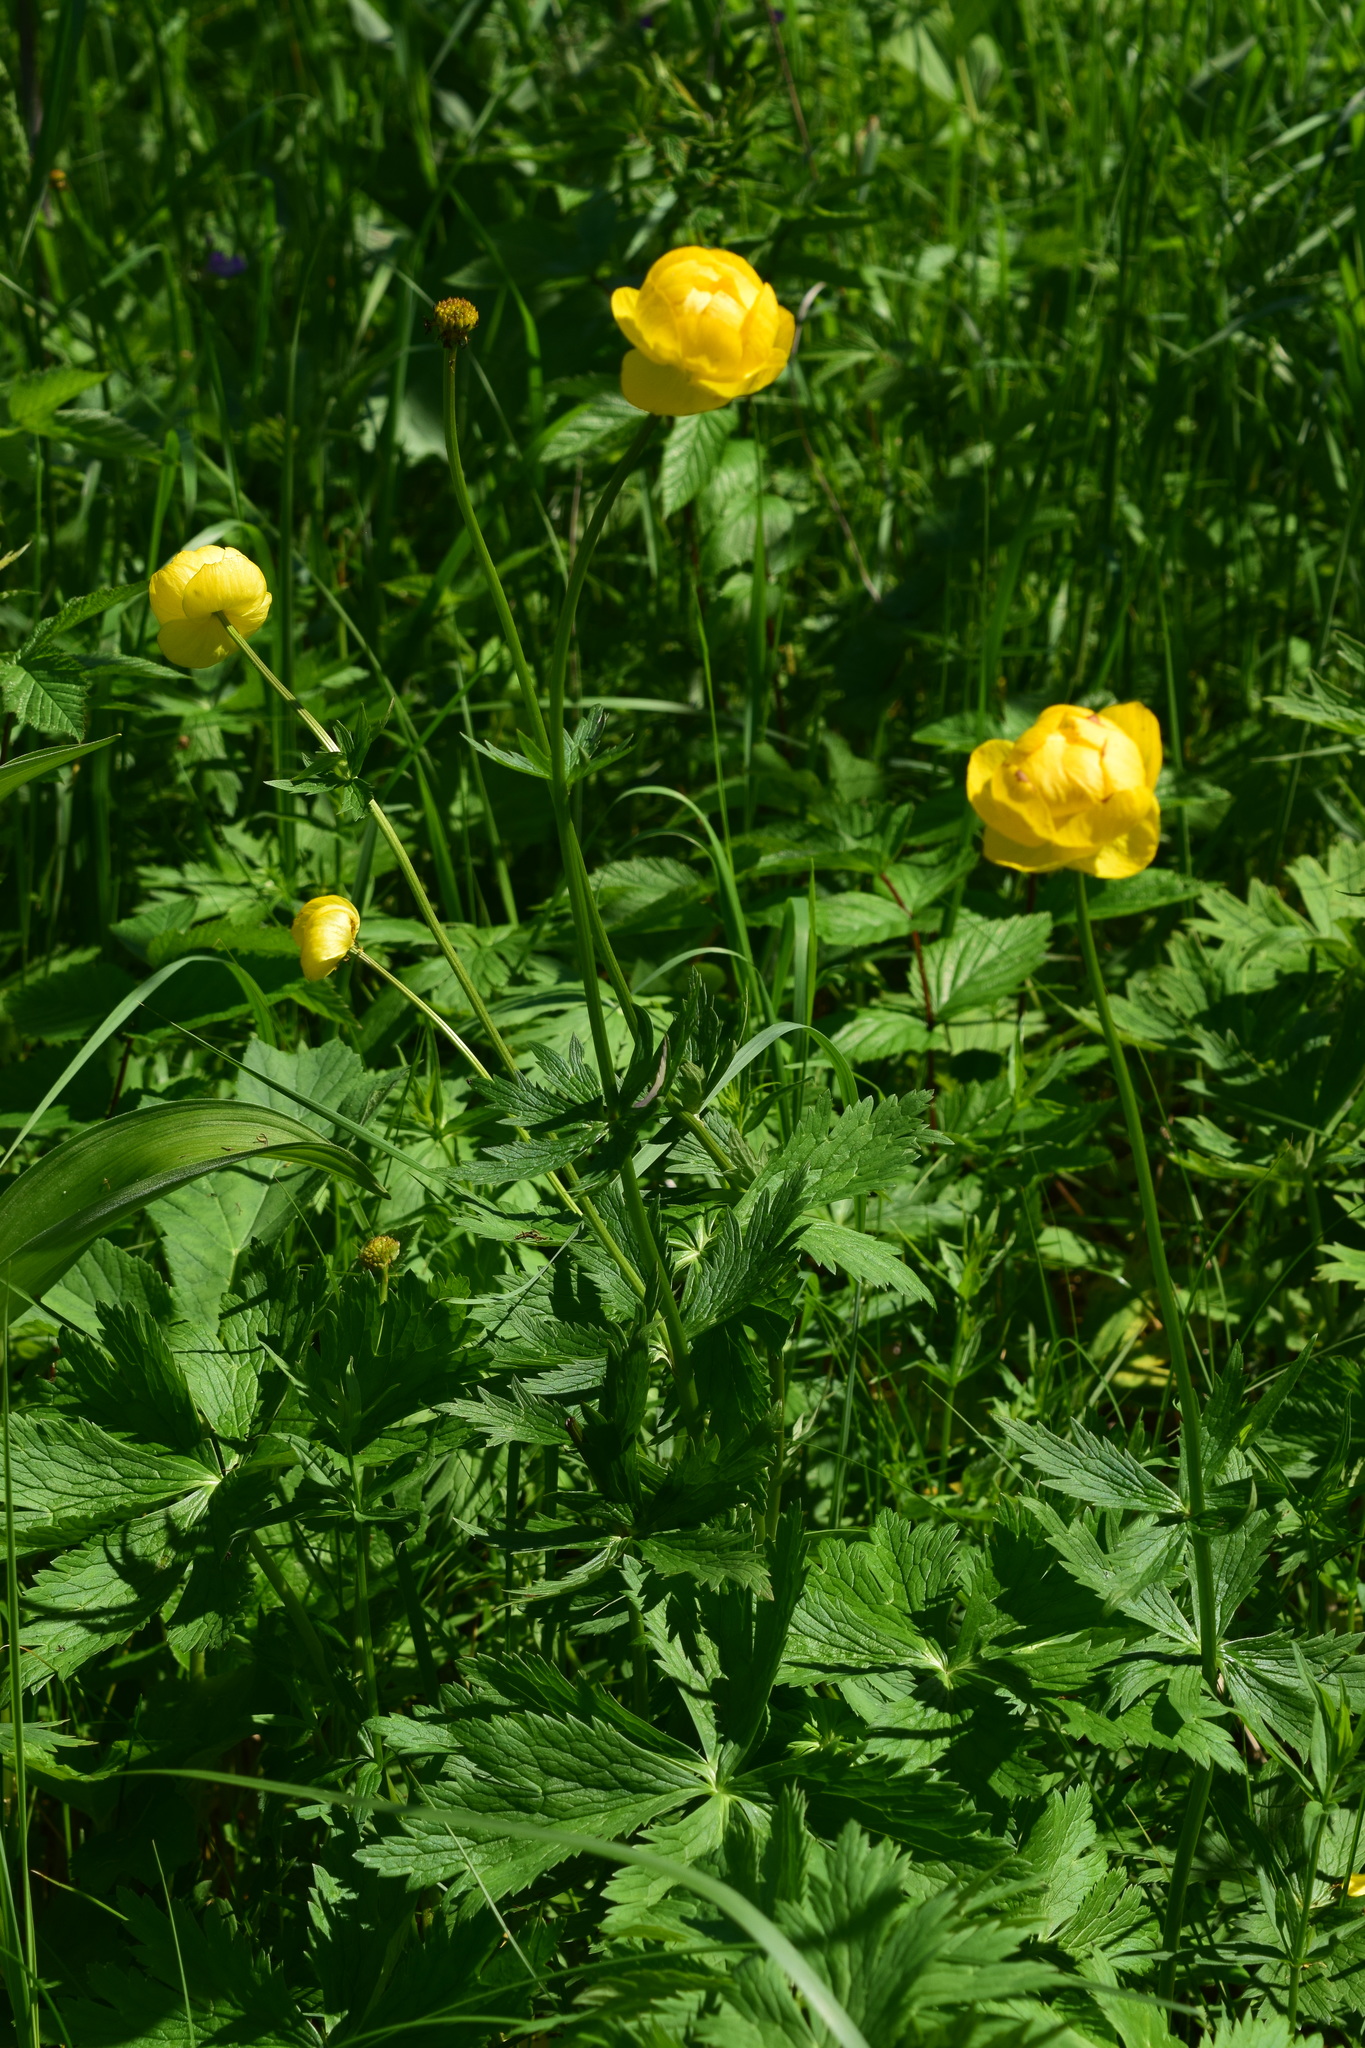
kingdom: Plantae
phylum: Tracheophyta
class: Magnoliopsida
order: Ranunculales
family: Ranunculaceae
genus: Trollius
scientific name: Trollius europaeus
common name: European globeflower
